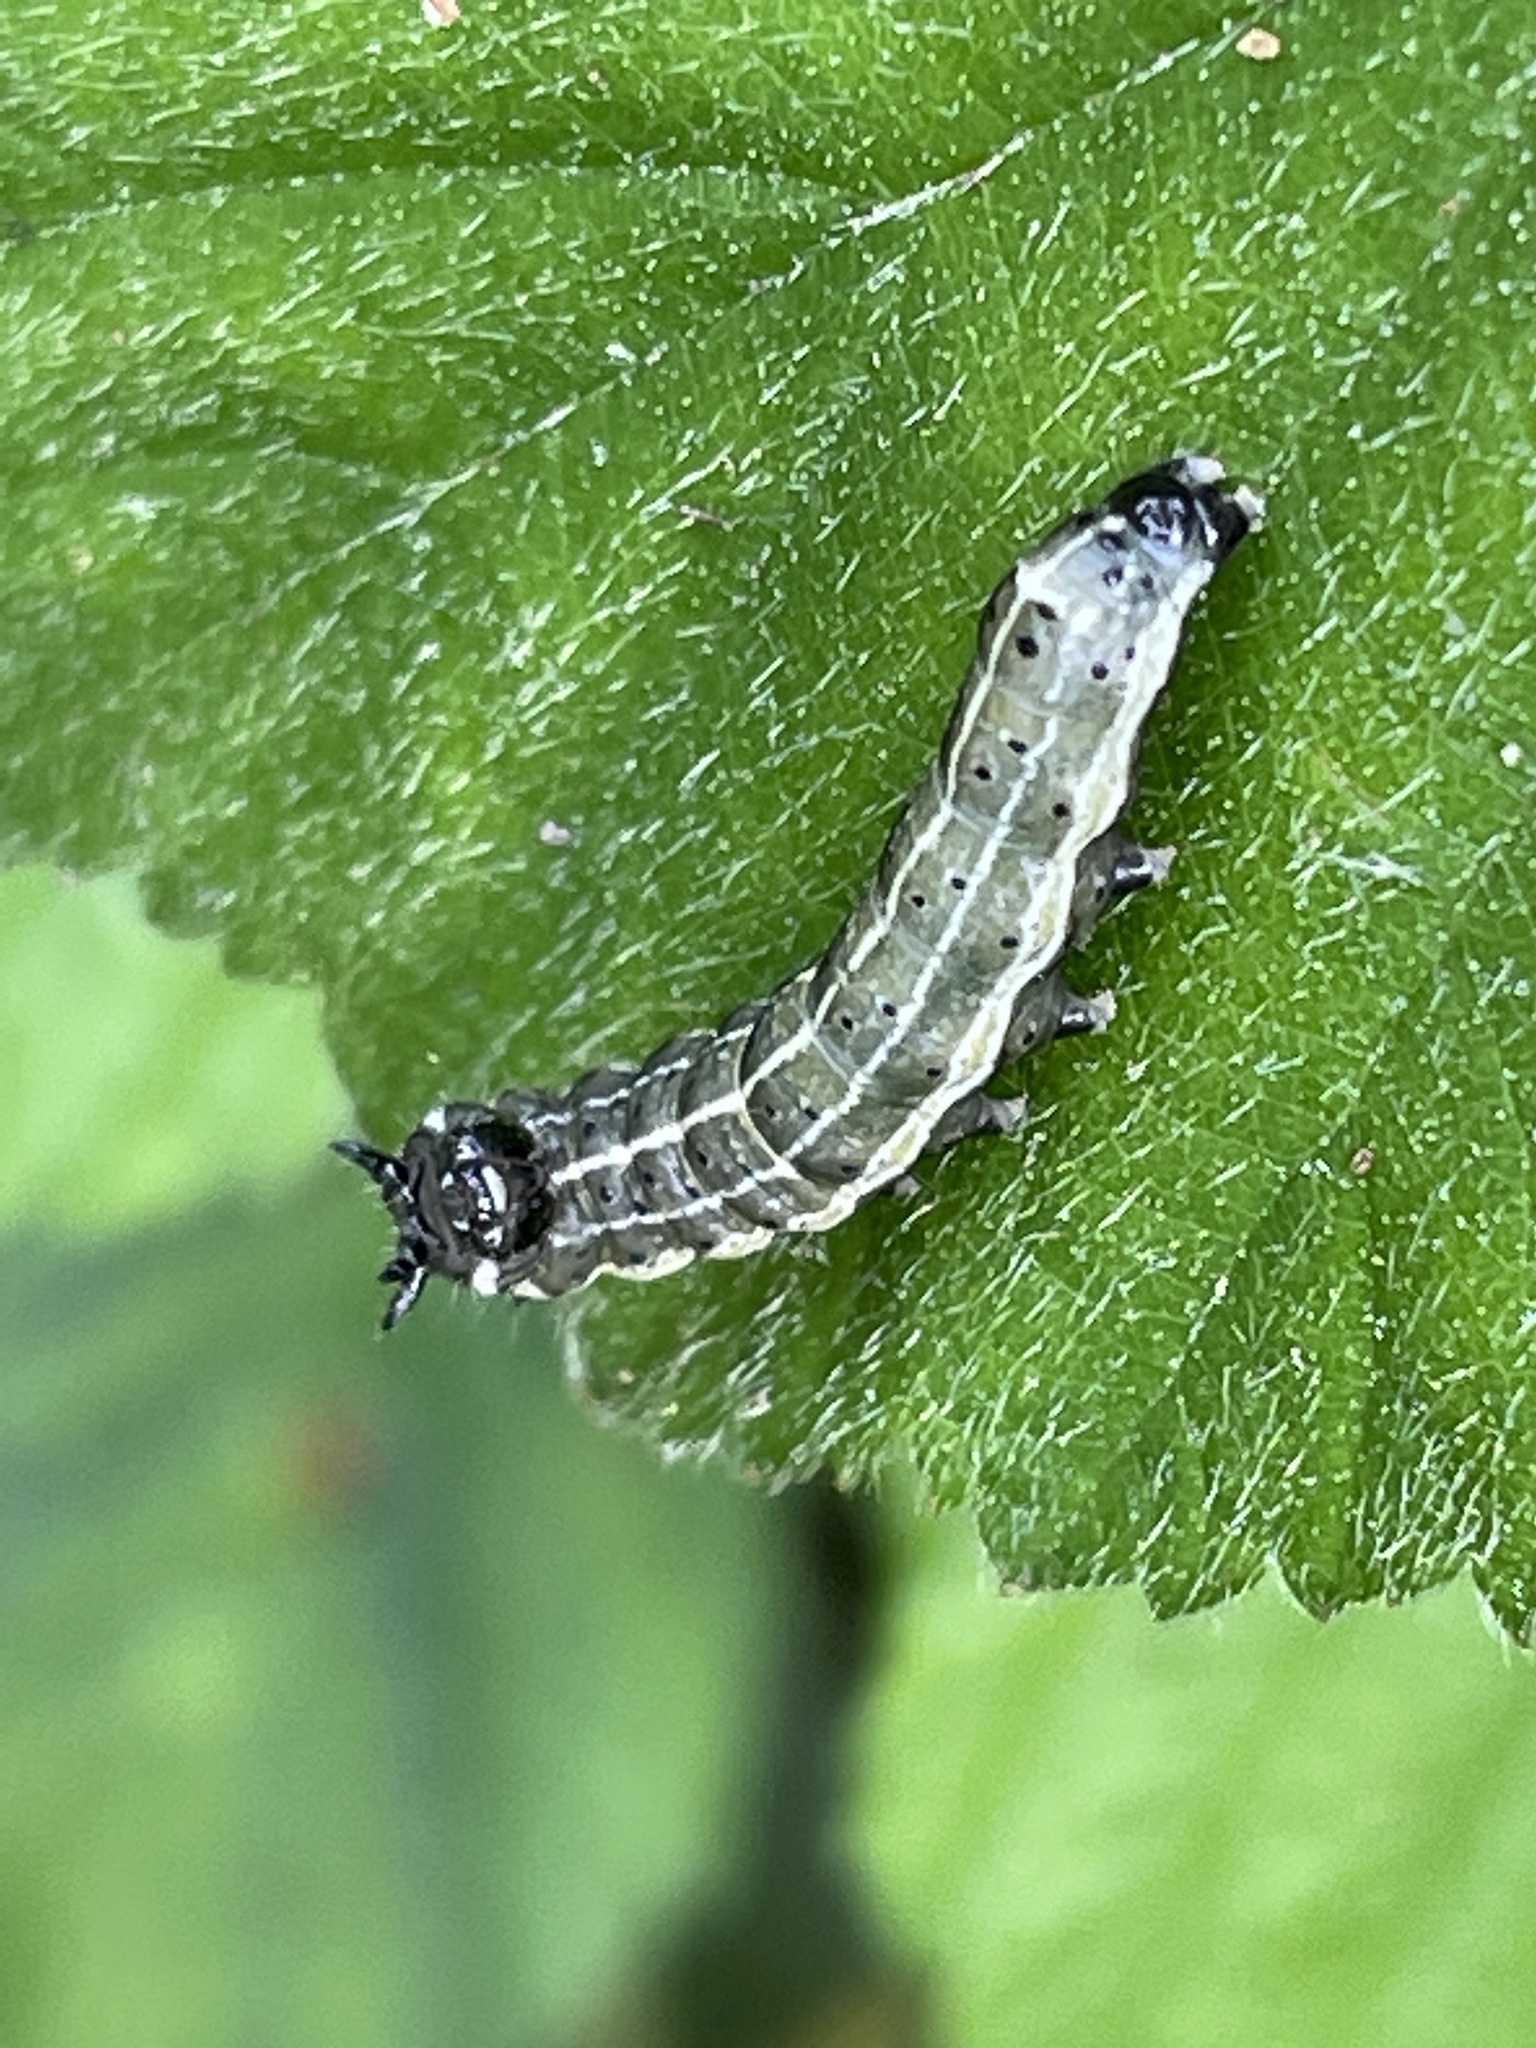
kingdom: Animalia
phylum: Arthropoda
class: Insecta
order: Lepidoptera
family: Noctuidae
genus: Orthosia
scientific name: Orthosia cruda
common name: Small quaker
